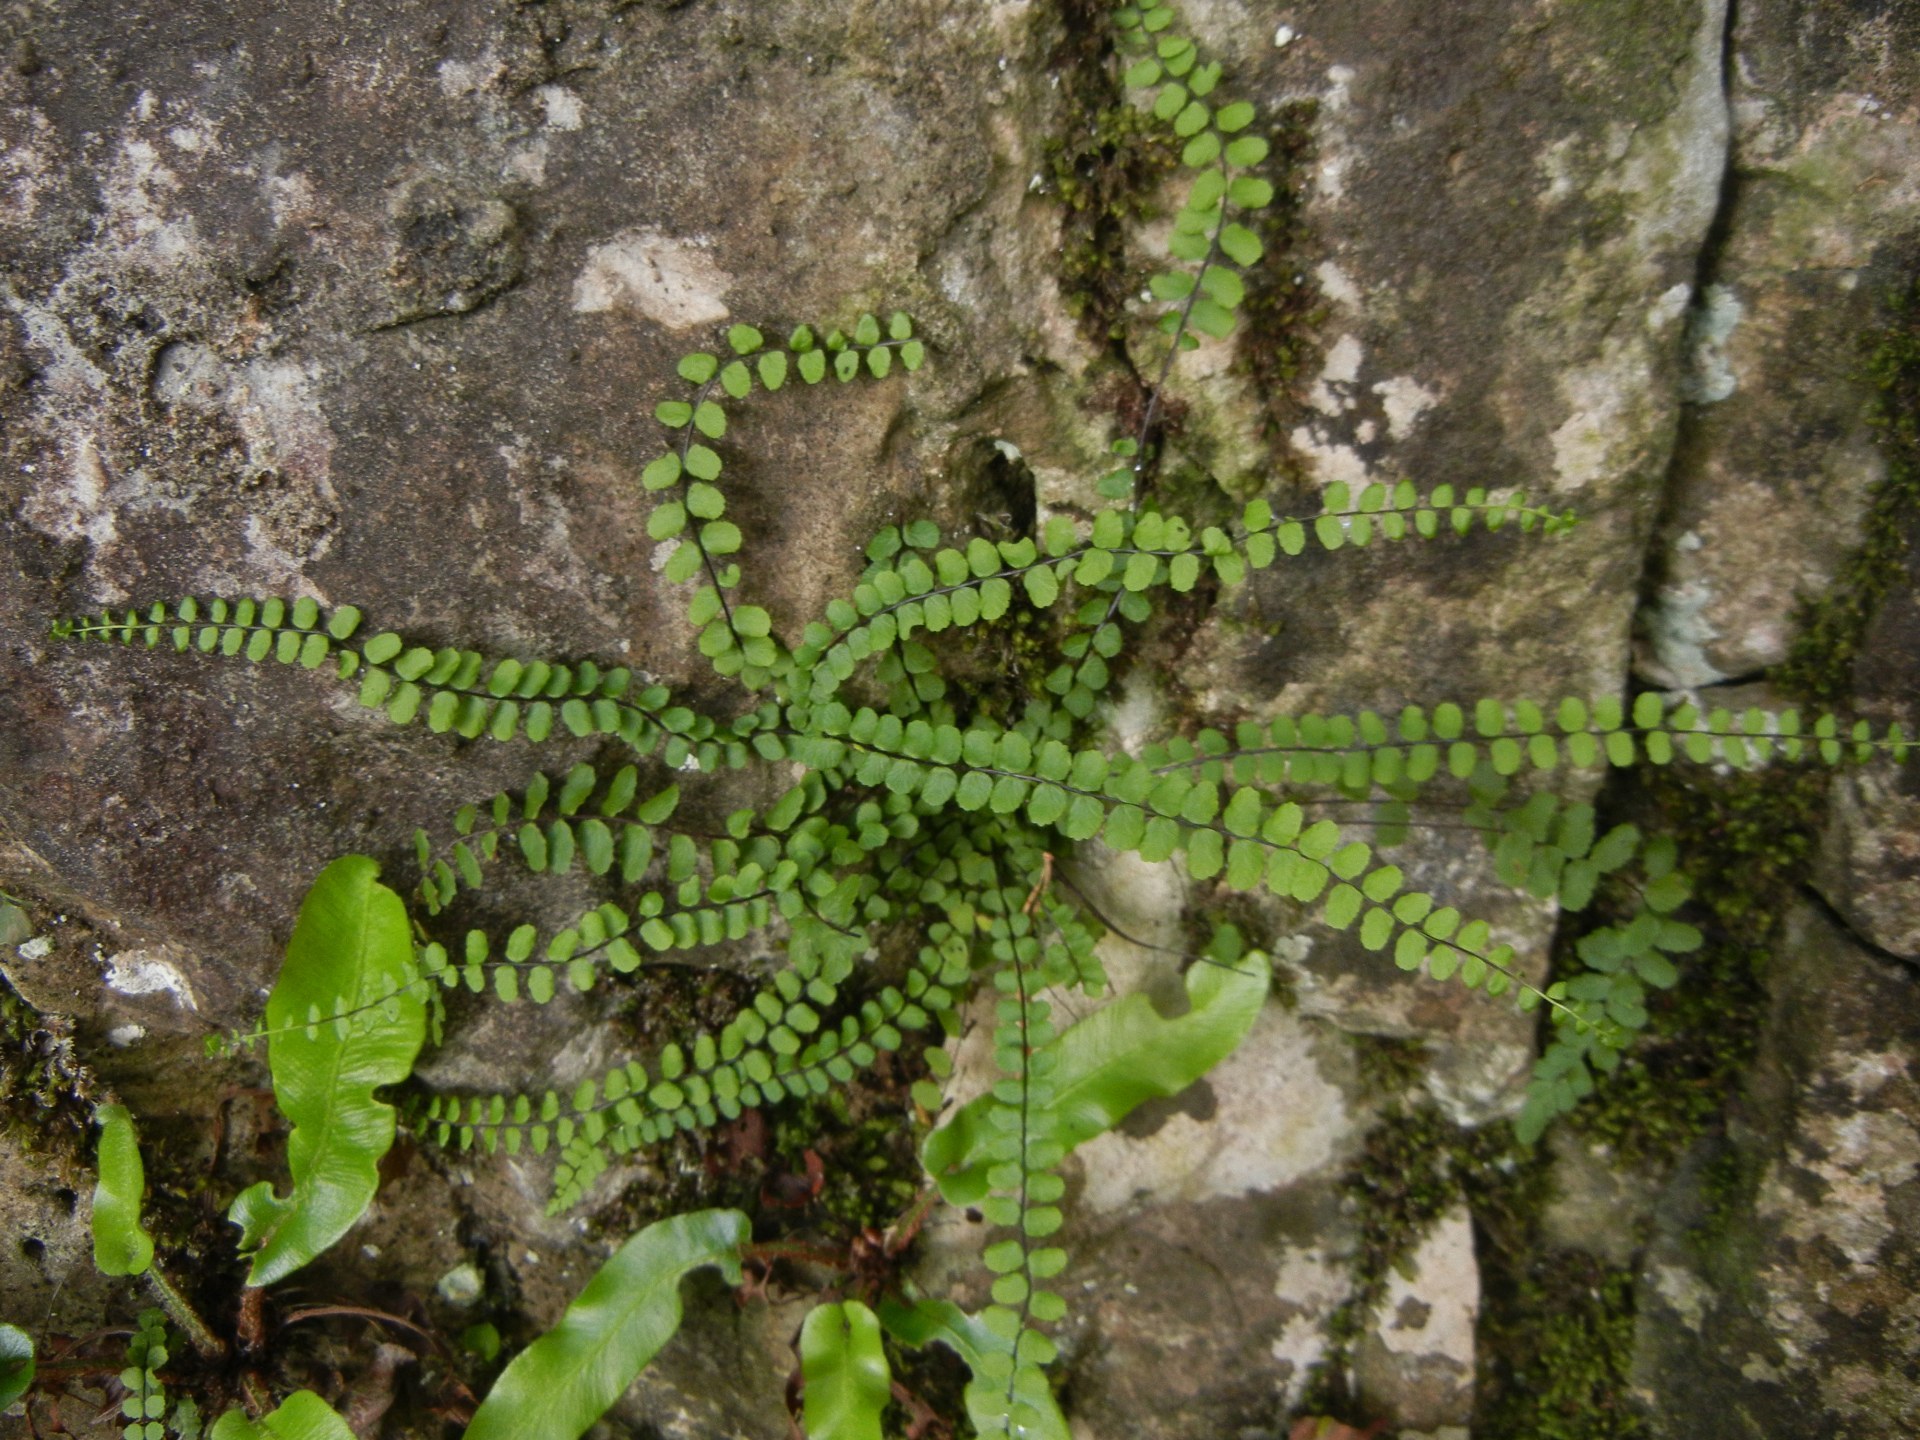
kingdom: Plantae
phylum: Tracheophyta
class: Polypodiopsida
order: Polypodiales
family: Aspleniaceae
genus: Asplenium
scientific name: Asplenium trichomanes
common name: Maidenhair spleenwort
